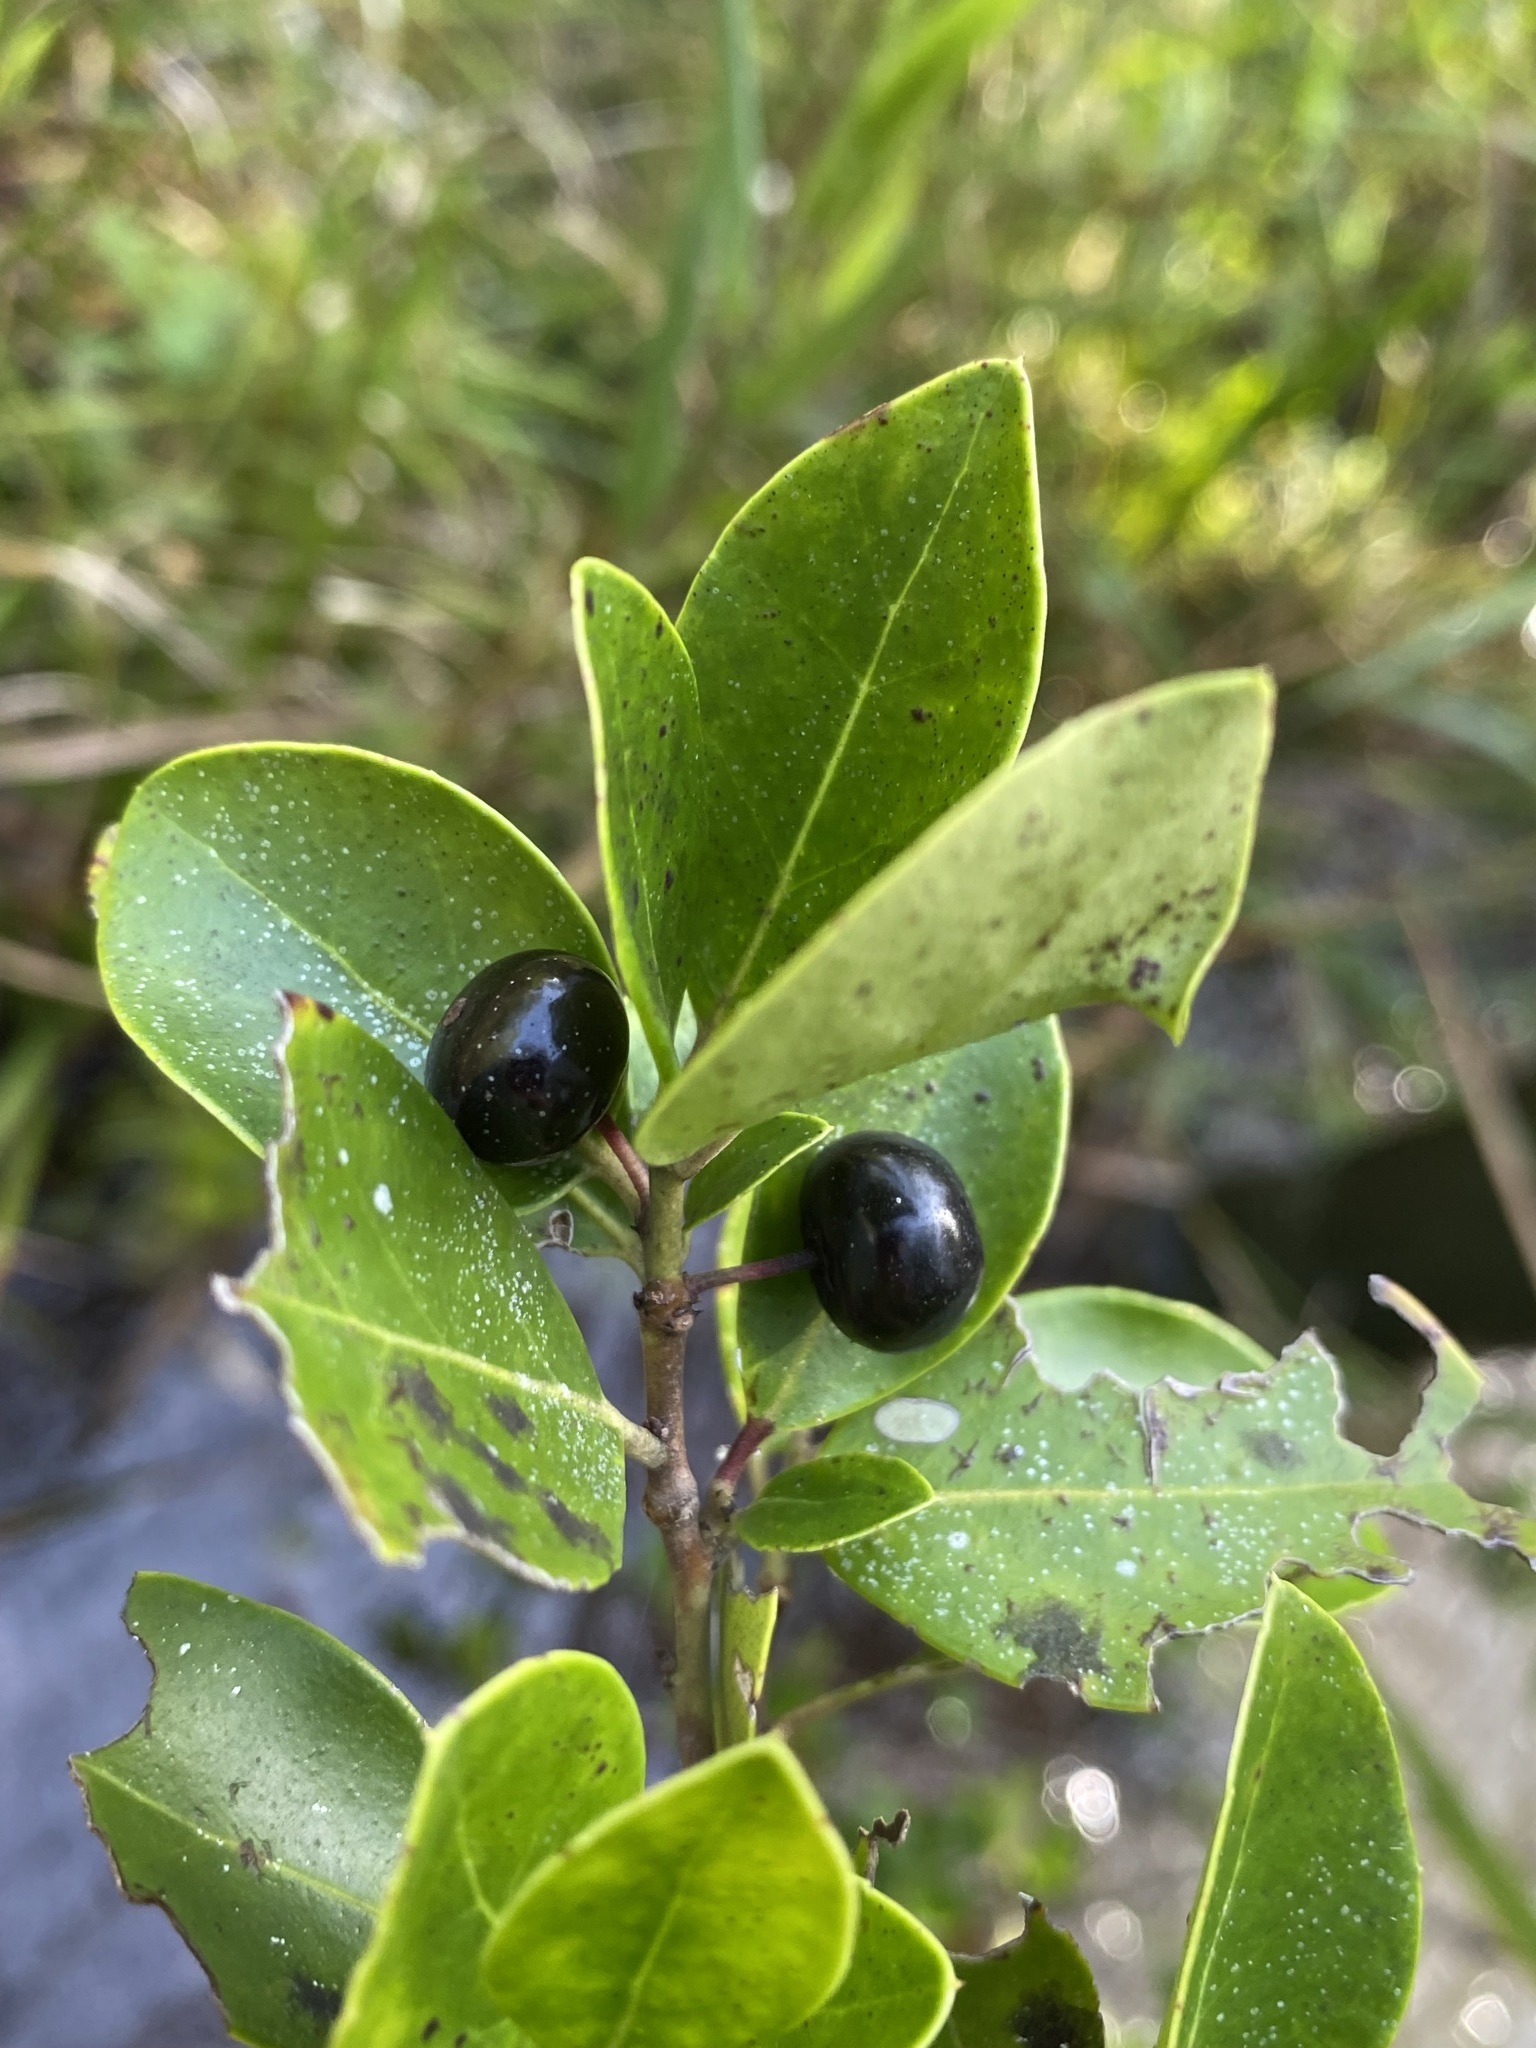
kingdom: Plantae
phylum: Tracheophyta
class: Magnoliopsida
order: Aquifoliales
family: Aquifoliaceae
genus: Ilex
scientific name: Ilex coriacea
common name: Sweet gallberry
